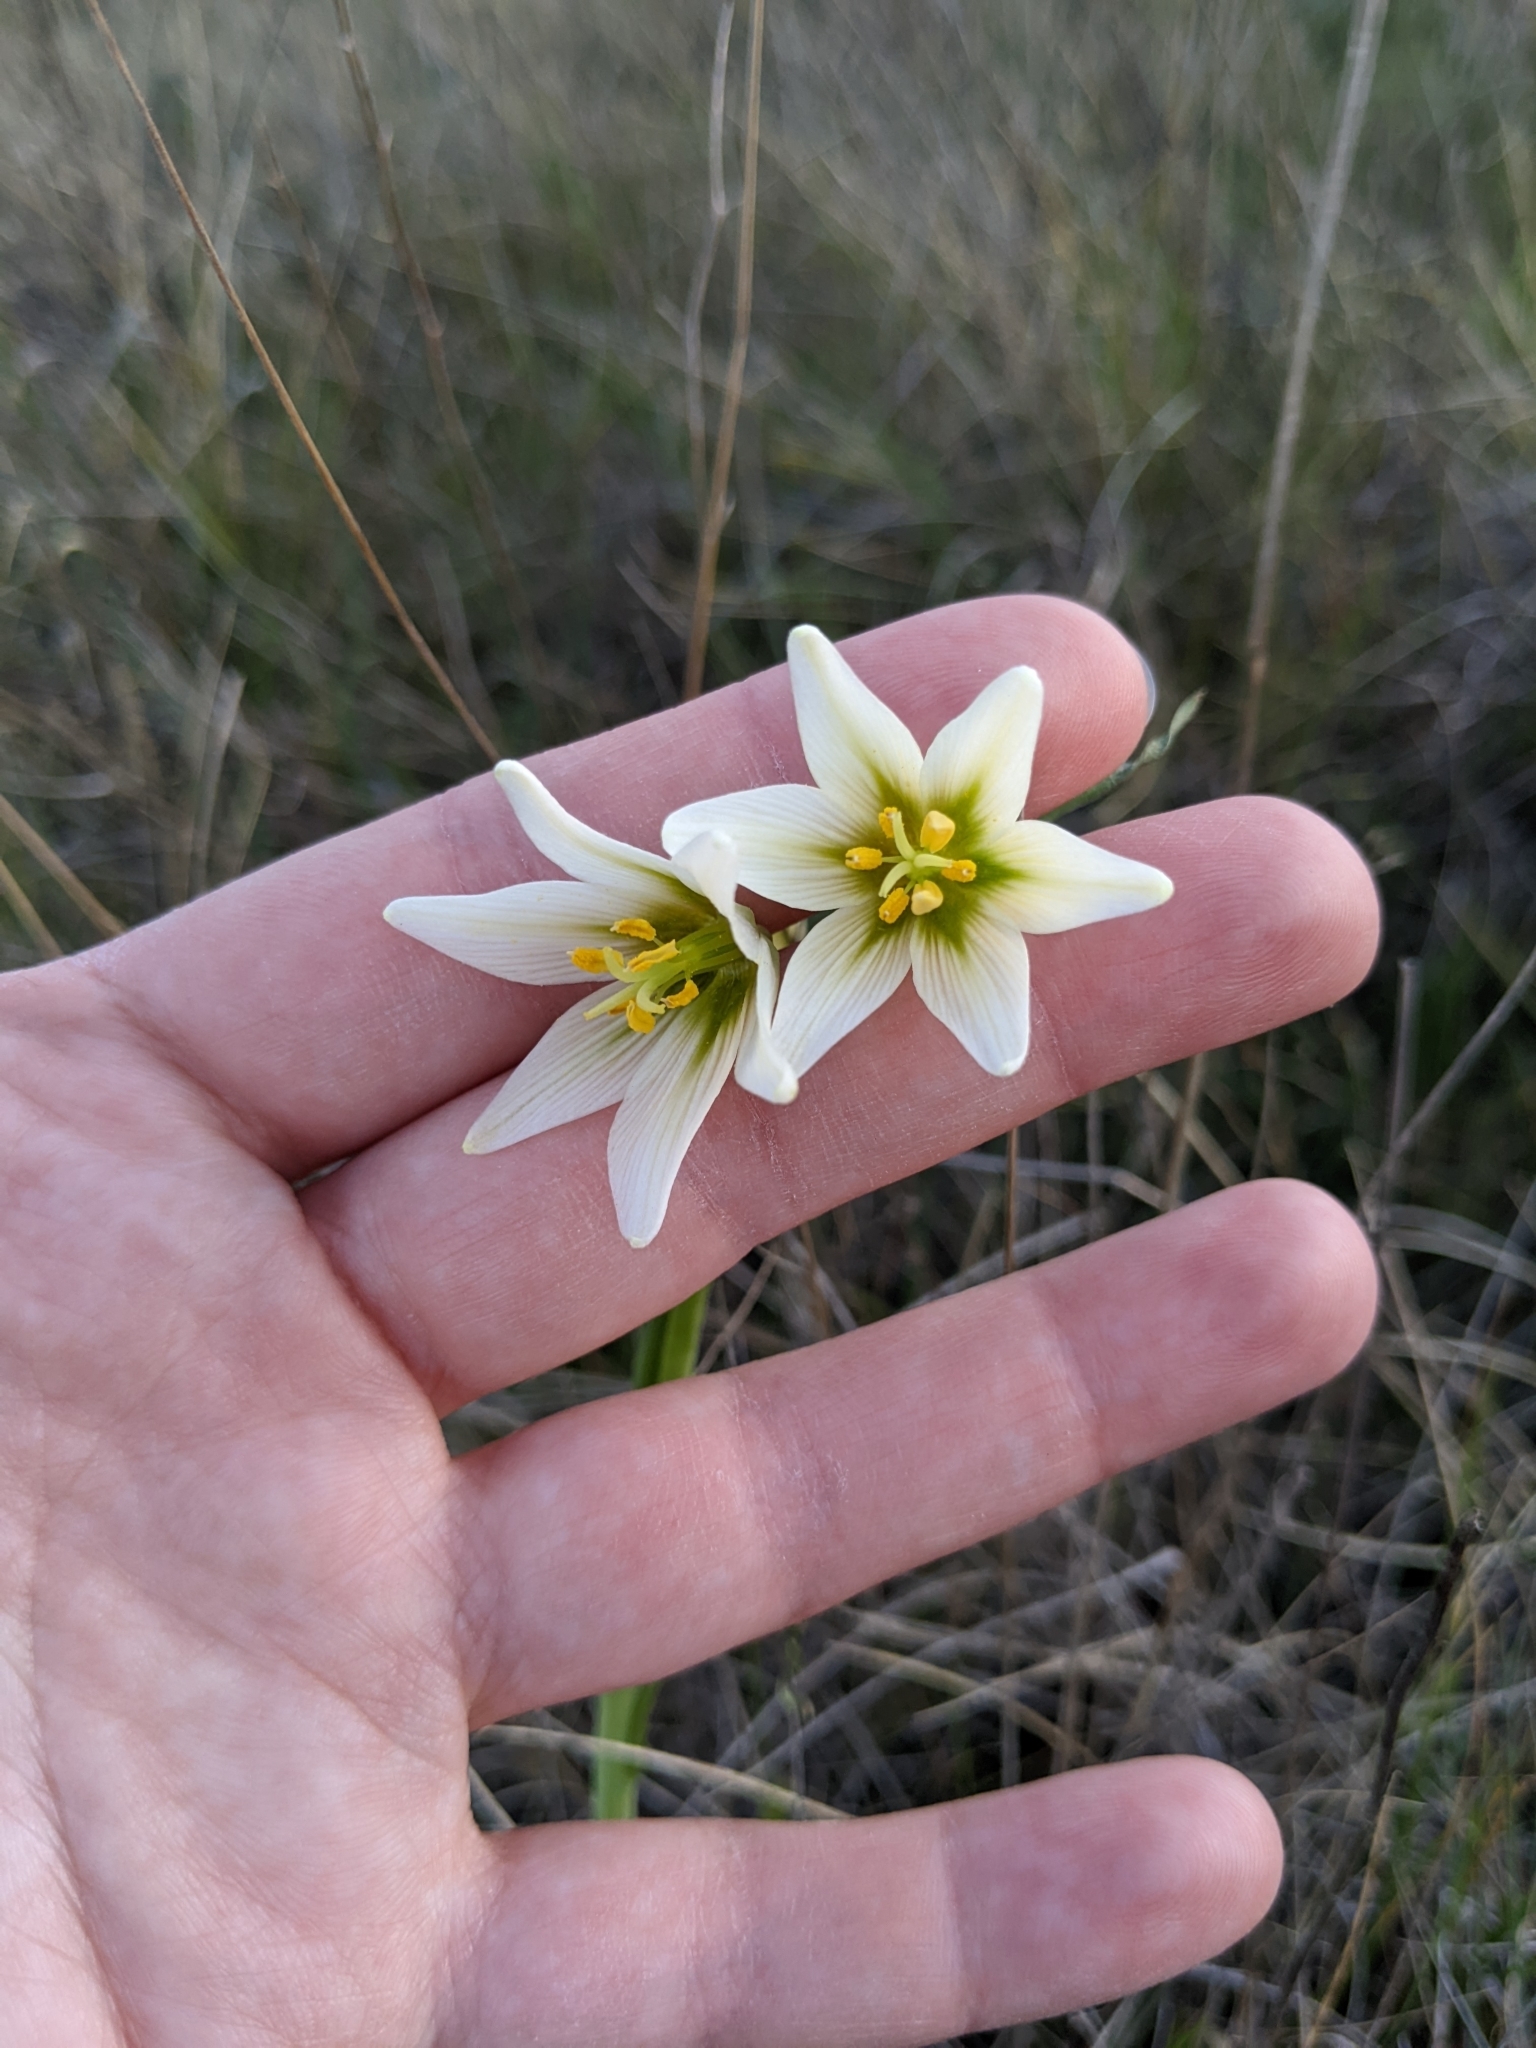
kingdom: Plantae
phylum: Tracheophyta
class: Liliopsida
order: Liliales
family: Liliaceae
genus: Fritillaria
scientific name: Fritillaria liliacea
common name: Fragrant fritillary
